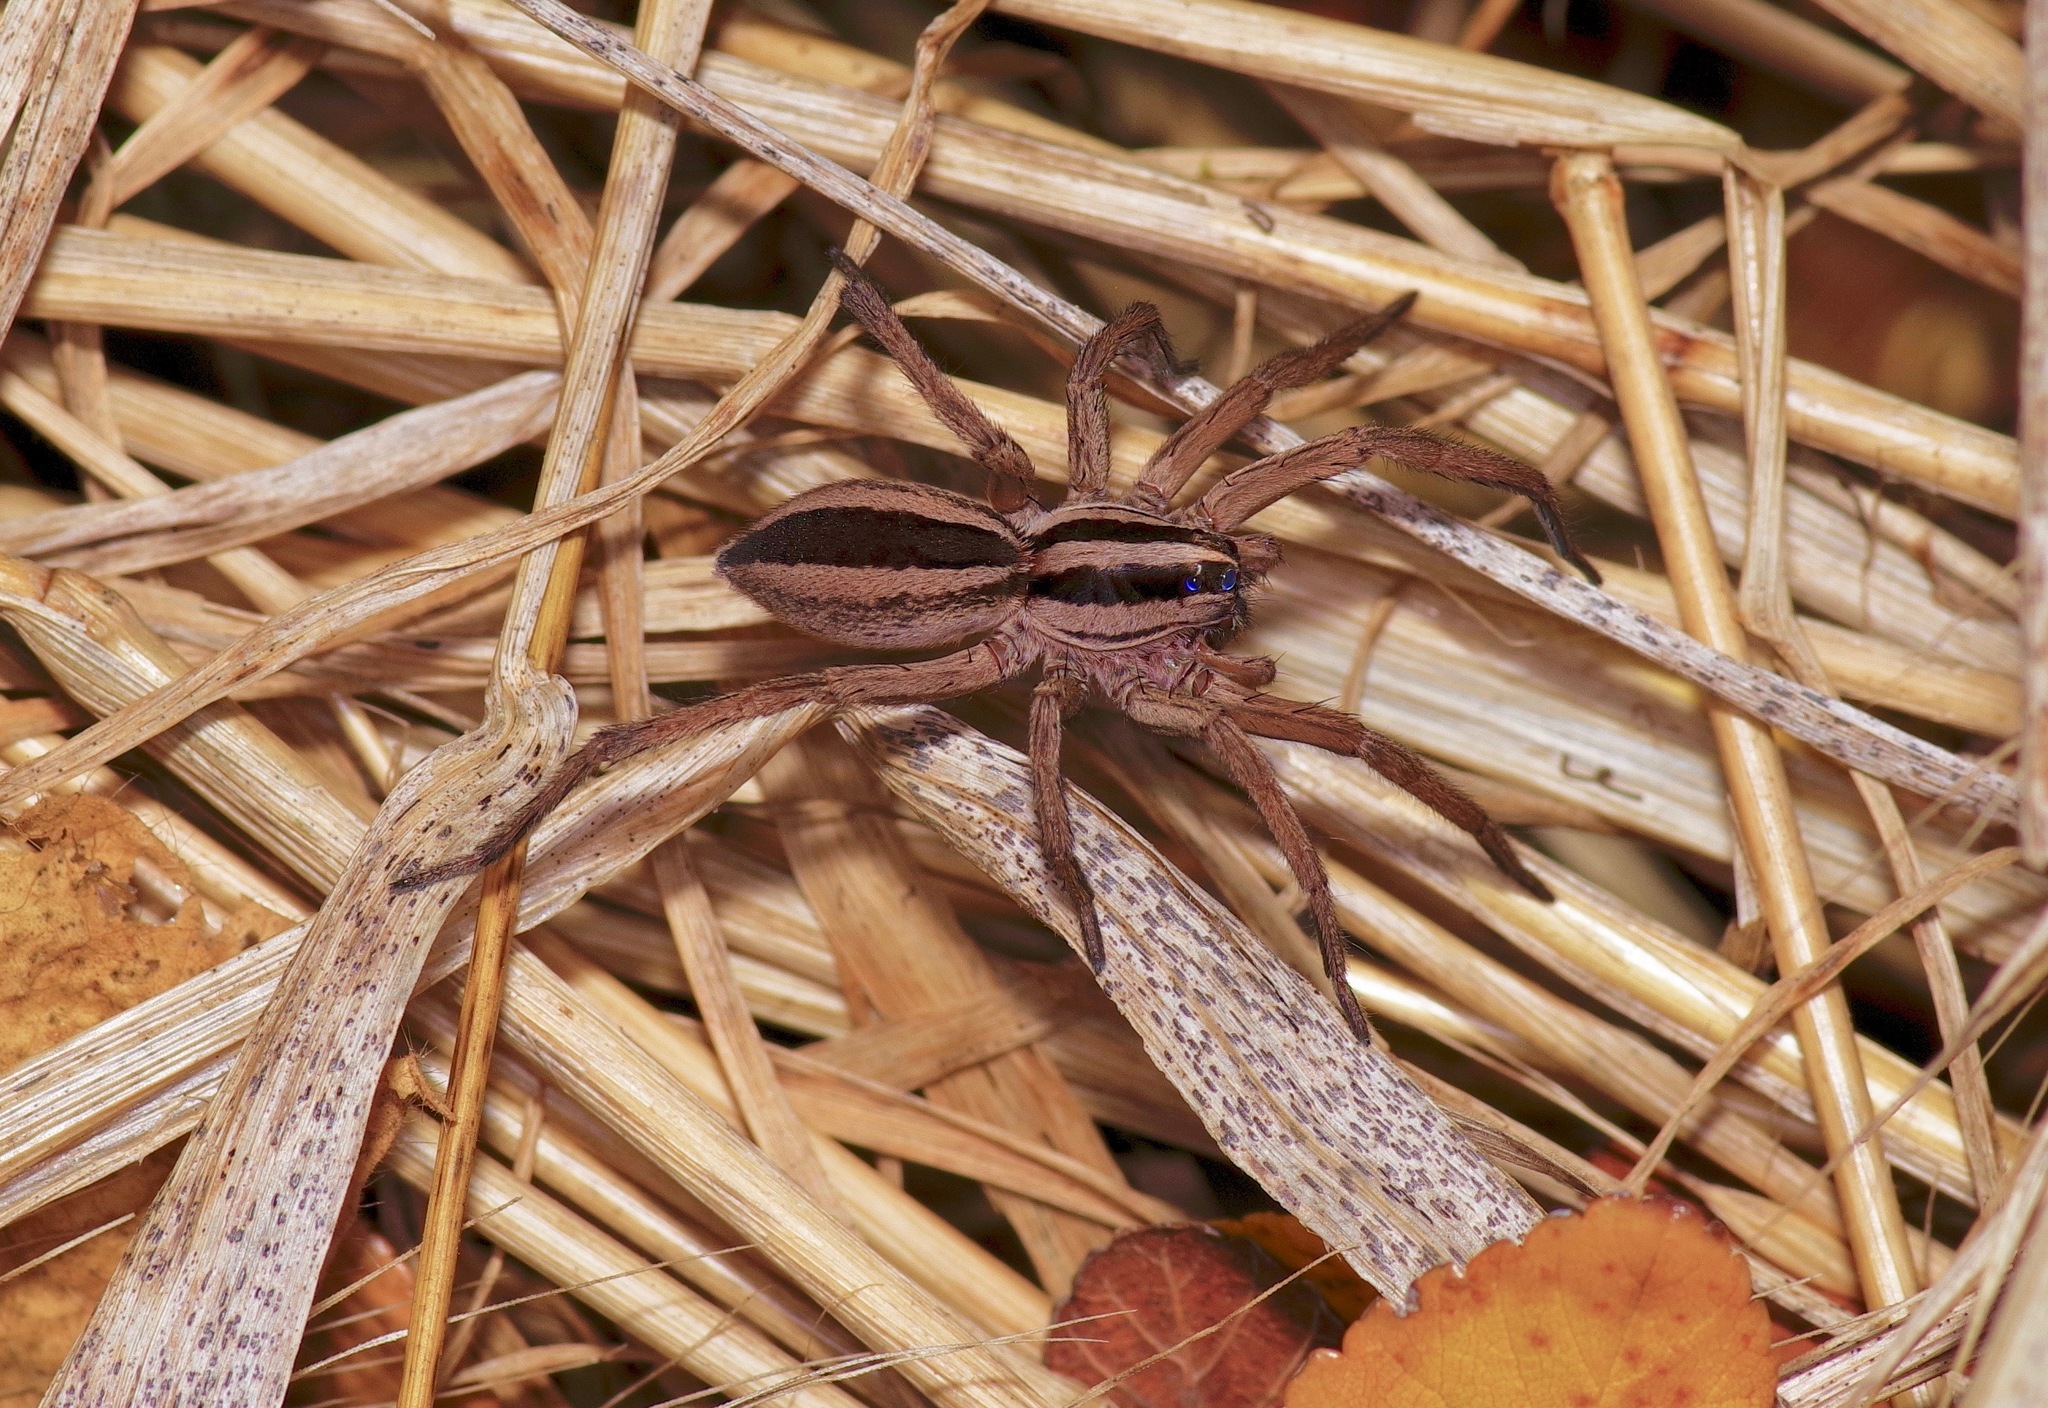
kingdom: Animalia
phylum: Arthropoda
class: Arachnida
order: Araneae
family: Lycosidae
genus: Rabidosa
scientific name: Rabidosa punctulata
